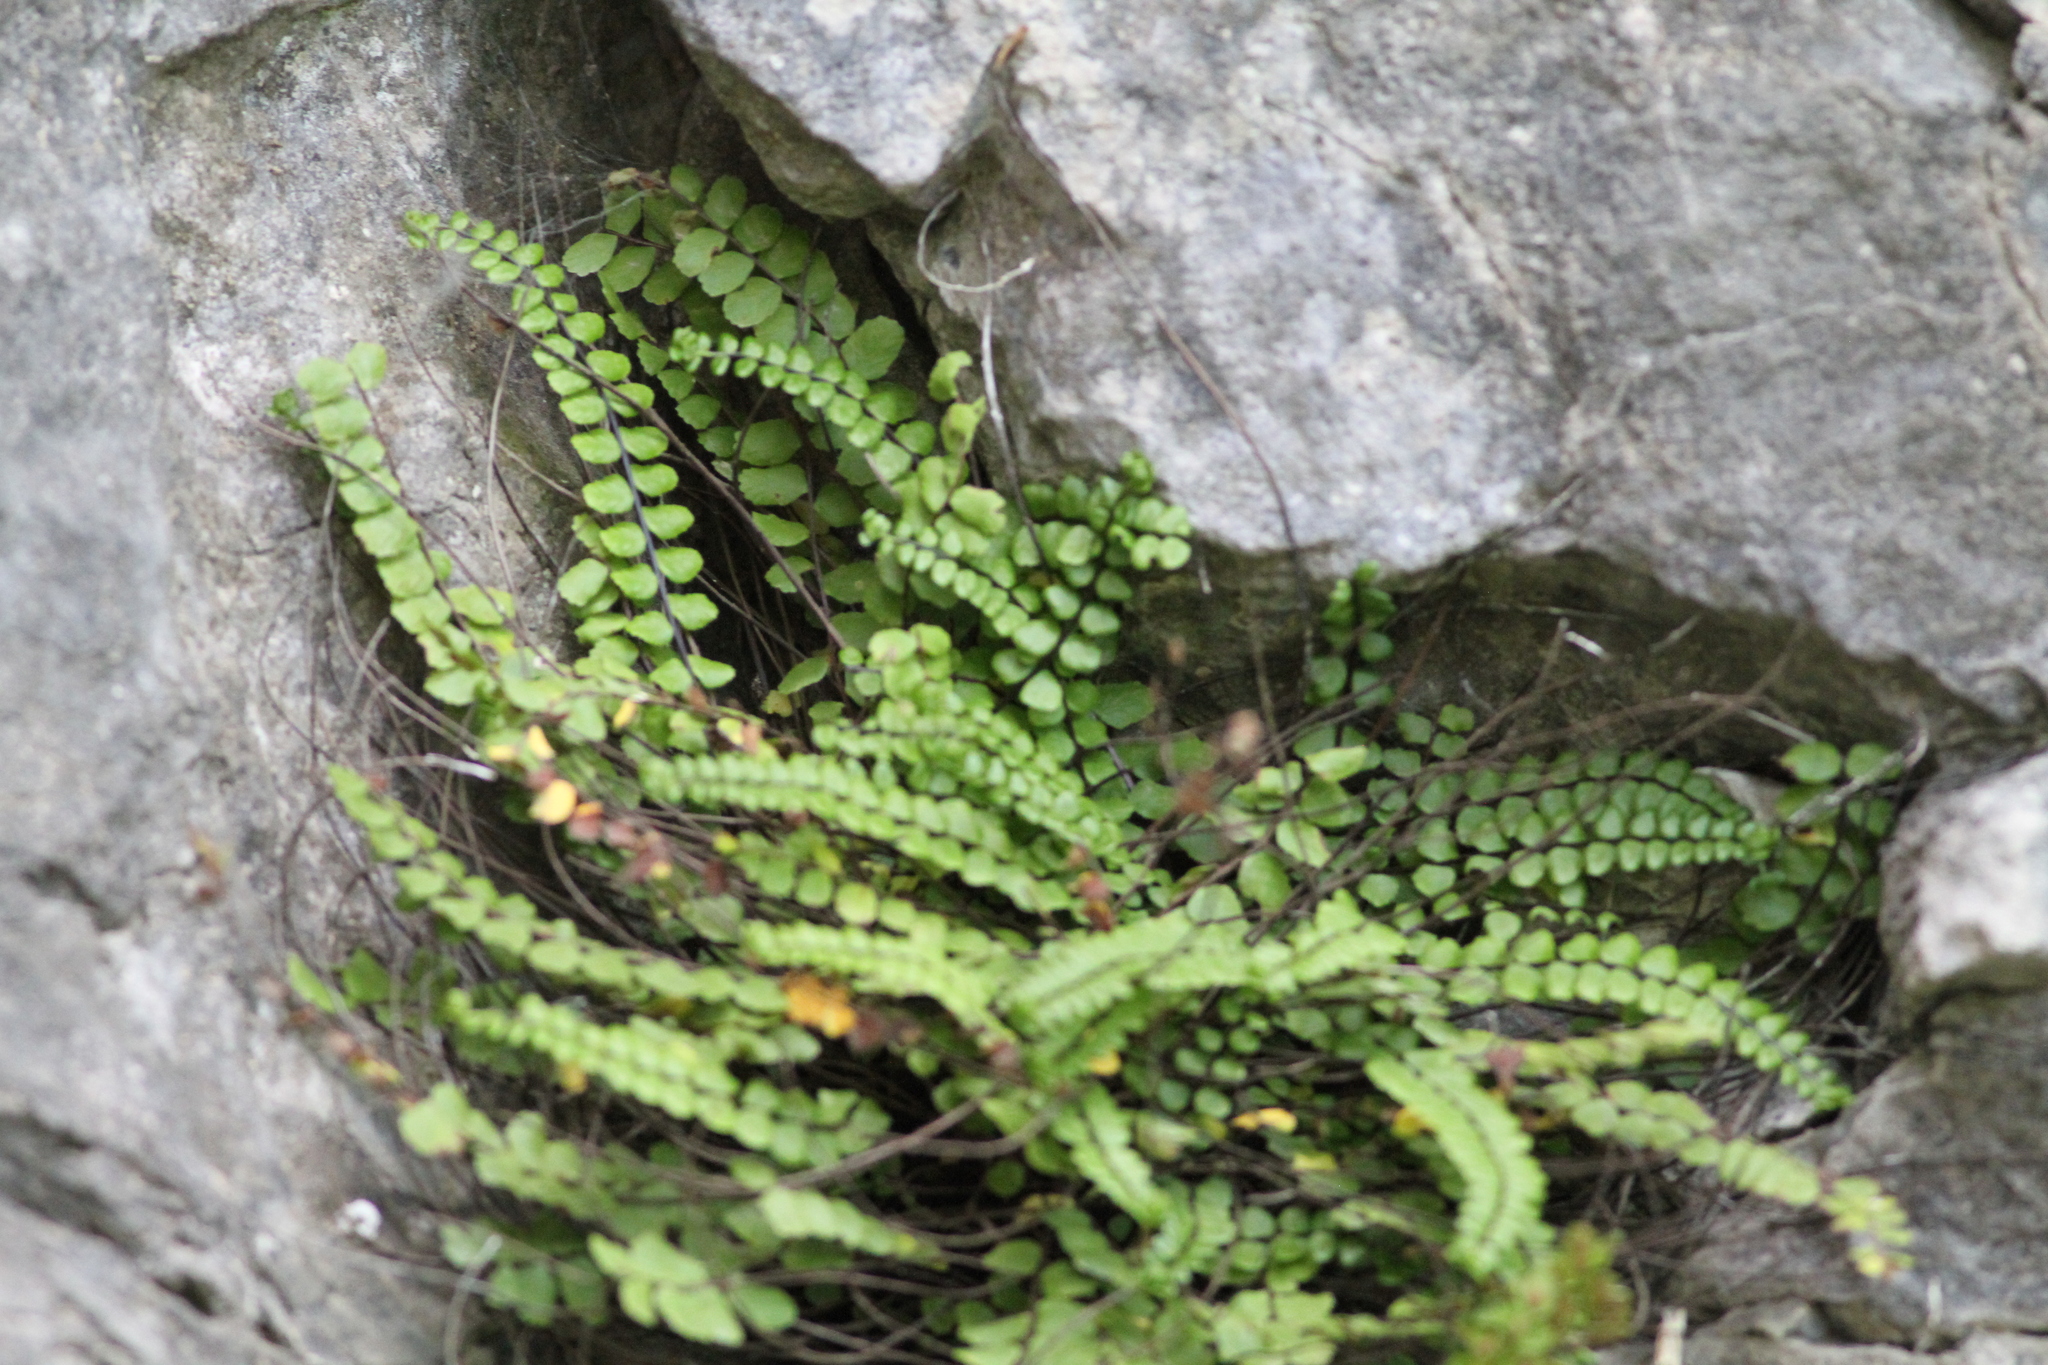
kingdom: Plantae
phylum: Tracheophyta
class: Polypodiopsida
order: Polypodiales
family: Aspleniaceae
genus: Asplenium
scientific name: Asplenium trichomanes
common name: Maidenhair spleenwort
